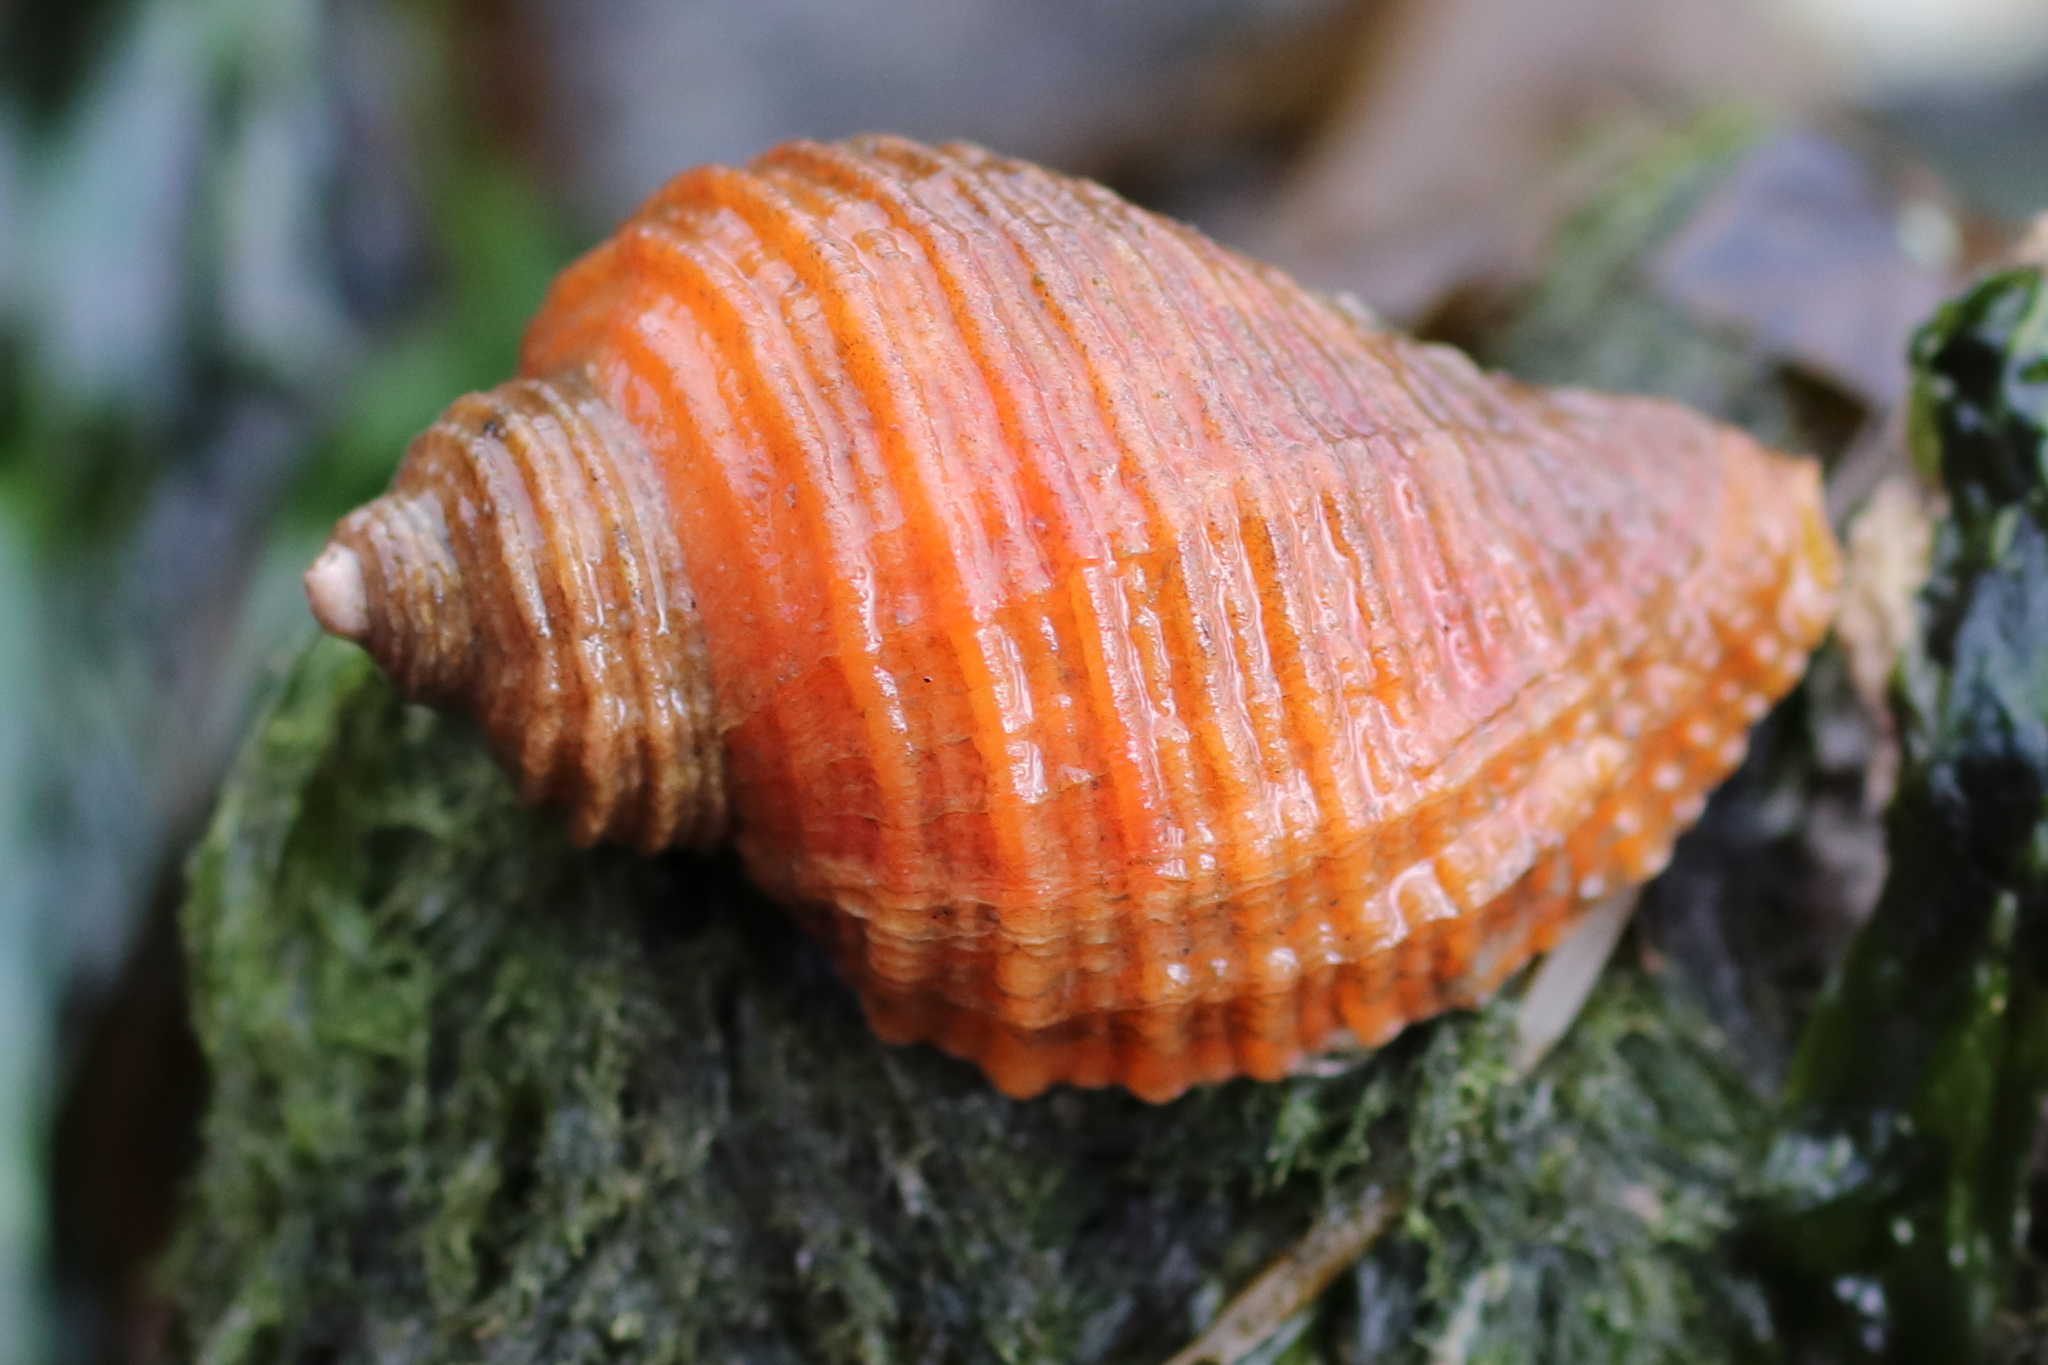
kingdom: Animalia
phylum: Mollusca
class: Gastropoda
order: Neogastropoda
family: Muricidae
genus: Nucella
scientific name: Nucella lima
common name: Rough purple
